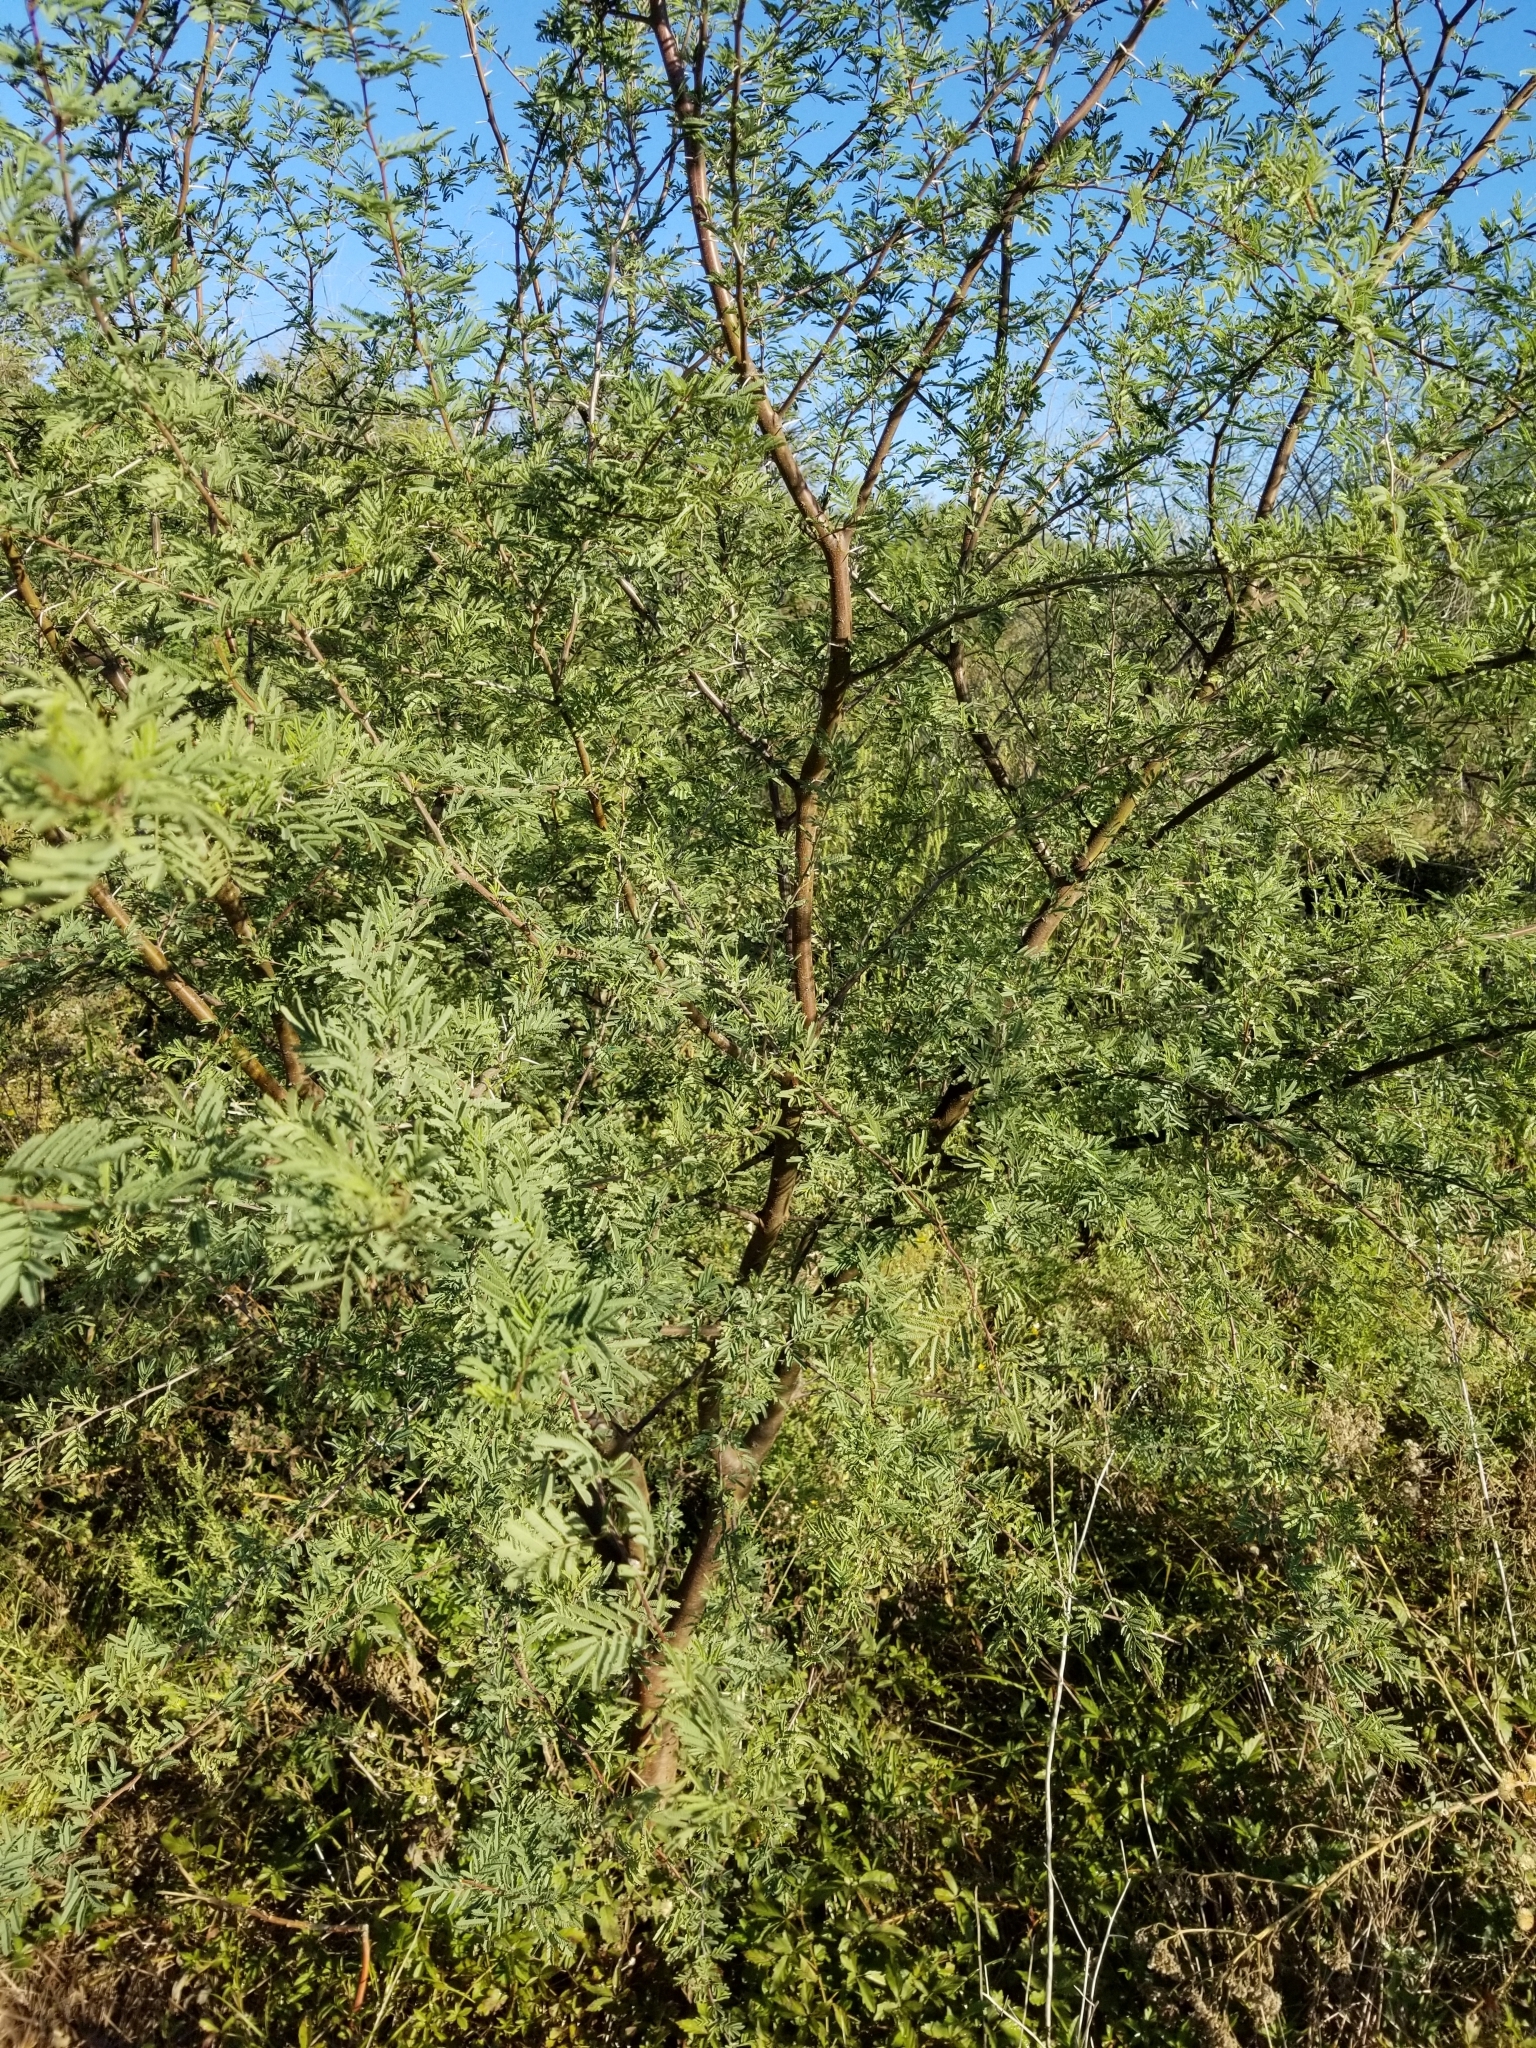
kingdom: Plantae
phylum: Tracheophyta
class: Magnoliopsida
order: Fabales
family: Fabaceae
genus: Vachellia
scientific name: Vachellia farnesiana
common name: Sweet acacia
